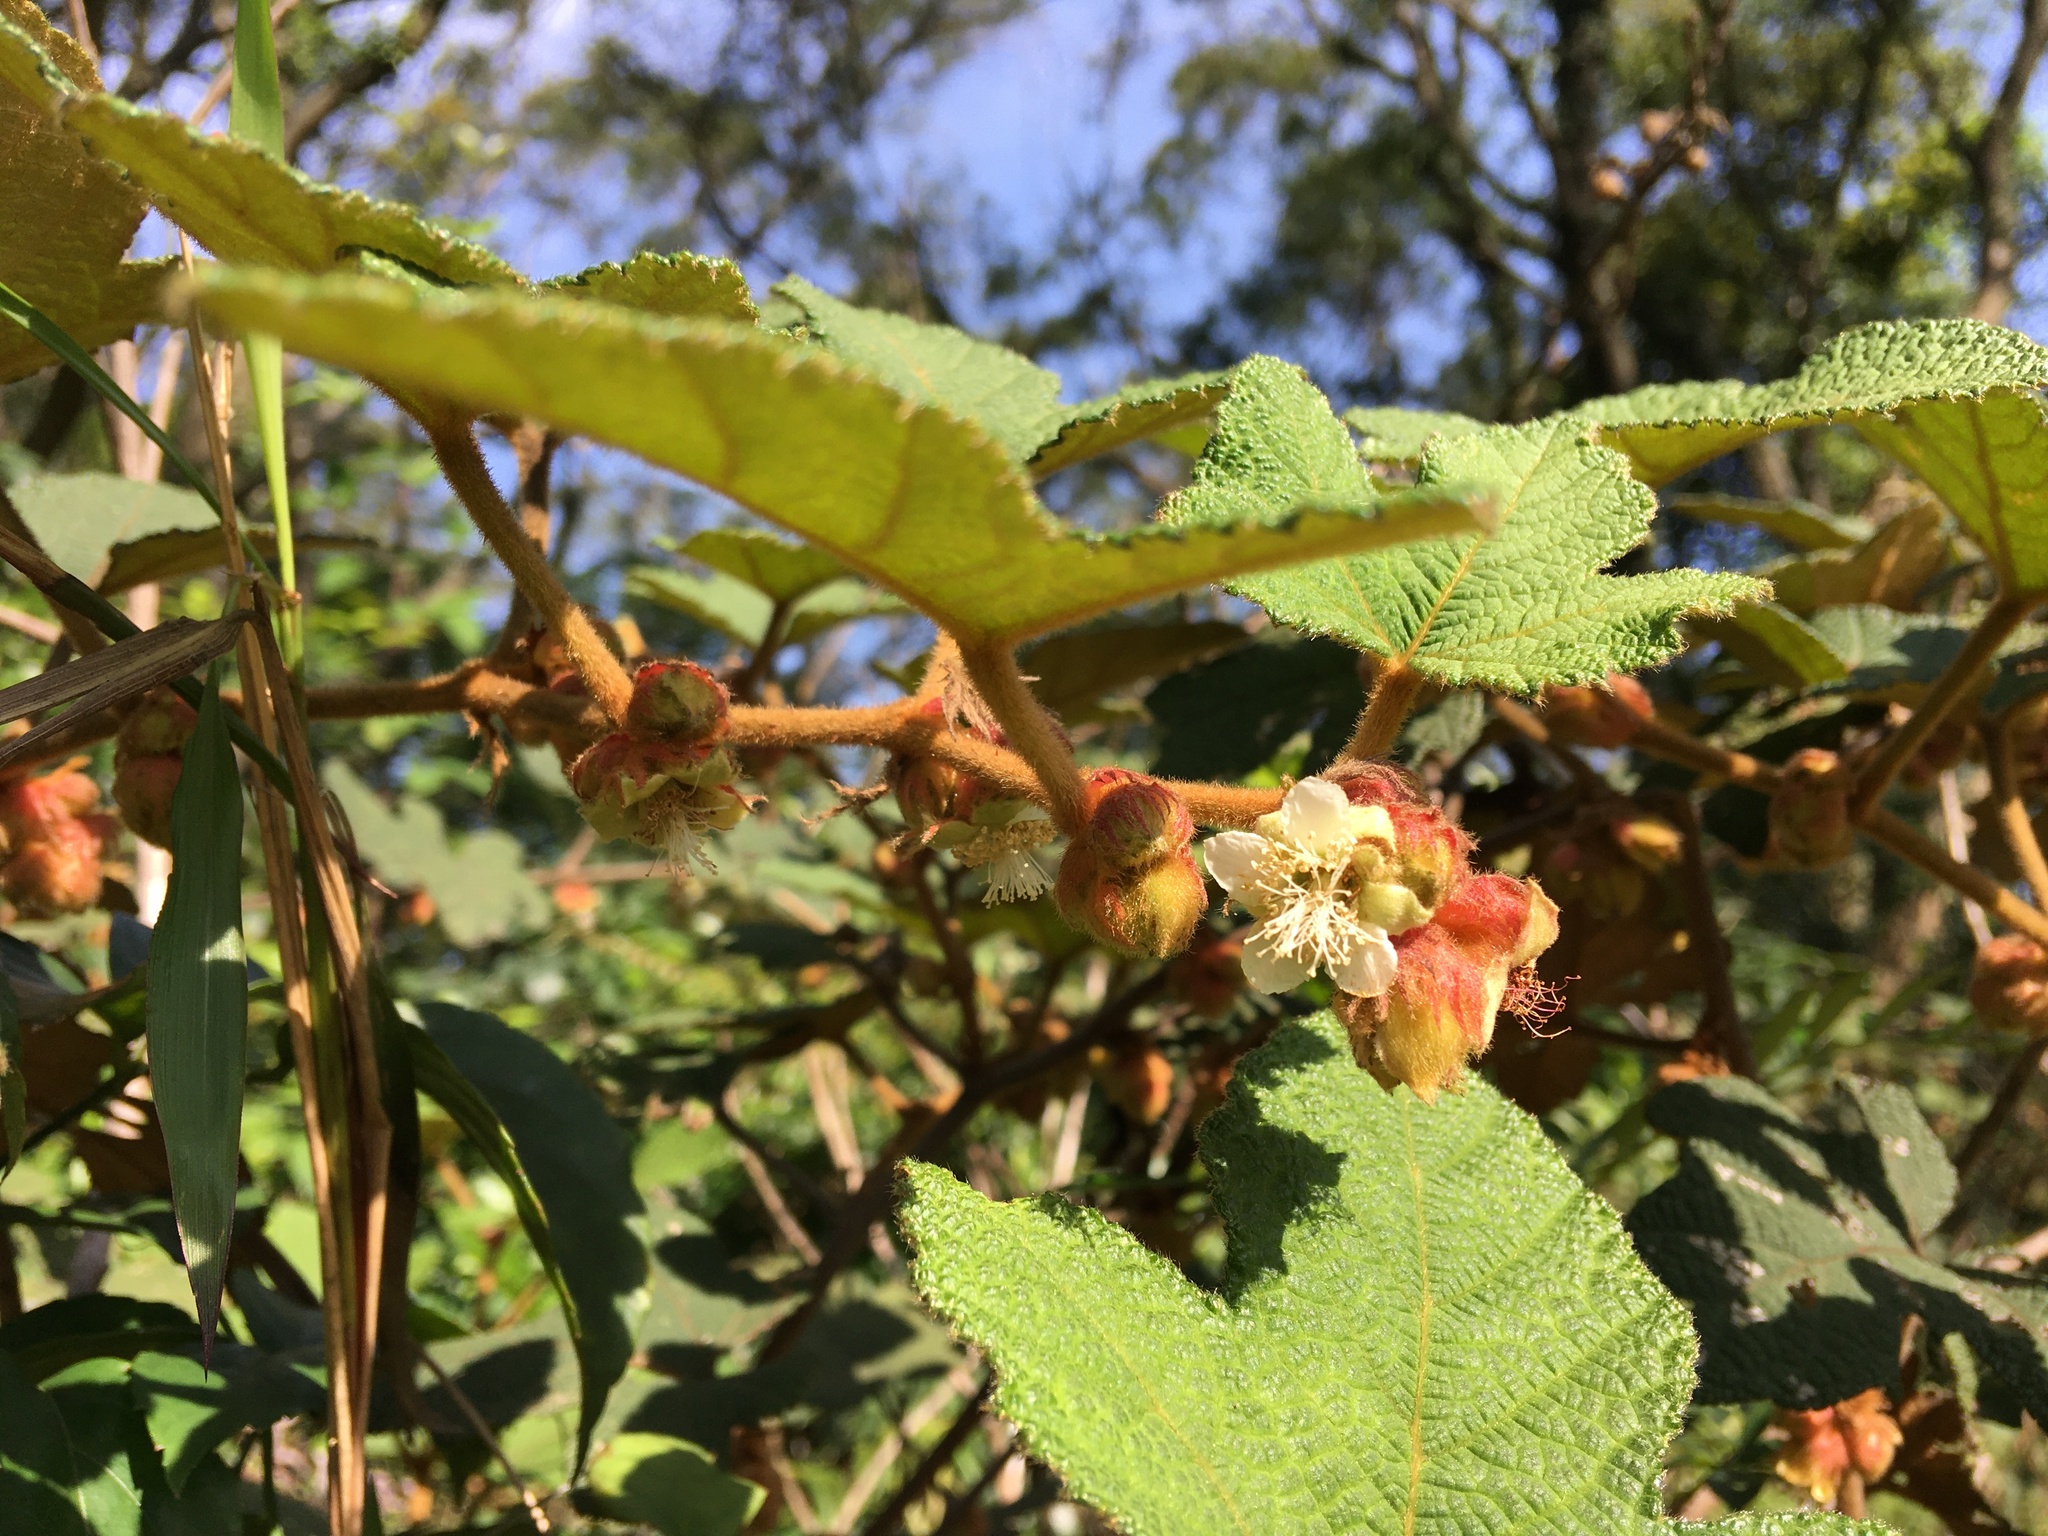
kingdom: Plantae
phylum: Tracheophyta
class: Magnoliopsida
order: Rosales
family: Rosaceae
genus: Rubus
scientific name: Rubus reflexus
